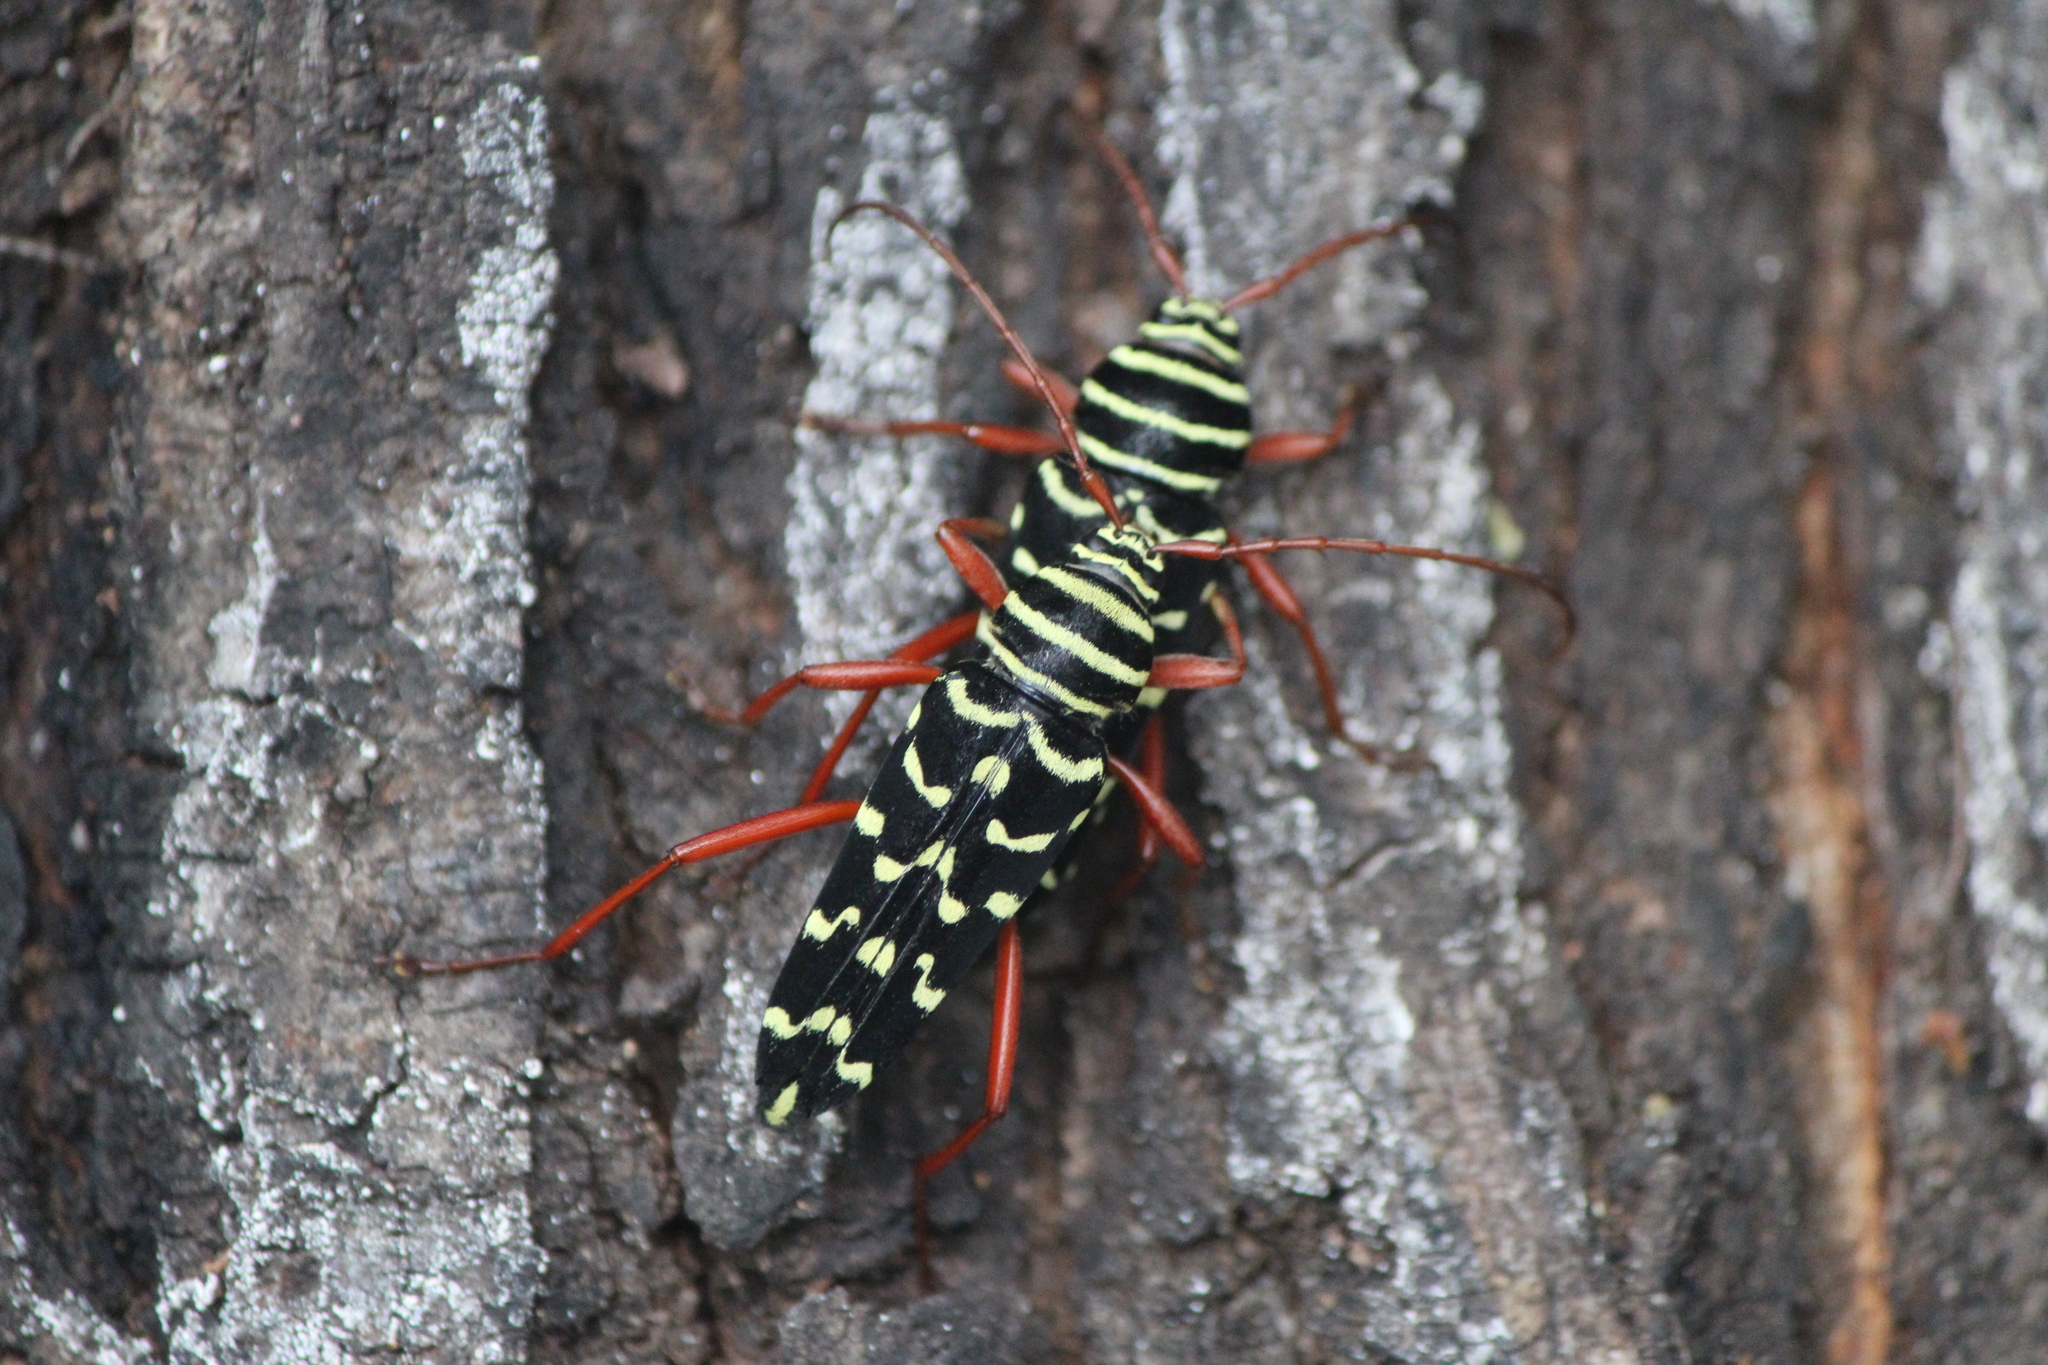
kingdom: Animalia
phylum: Arthropoda
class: Insecta
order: Coleoptera
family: Cerambycidae
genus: Placosternus
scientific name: Placosternus erythropus
